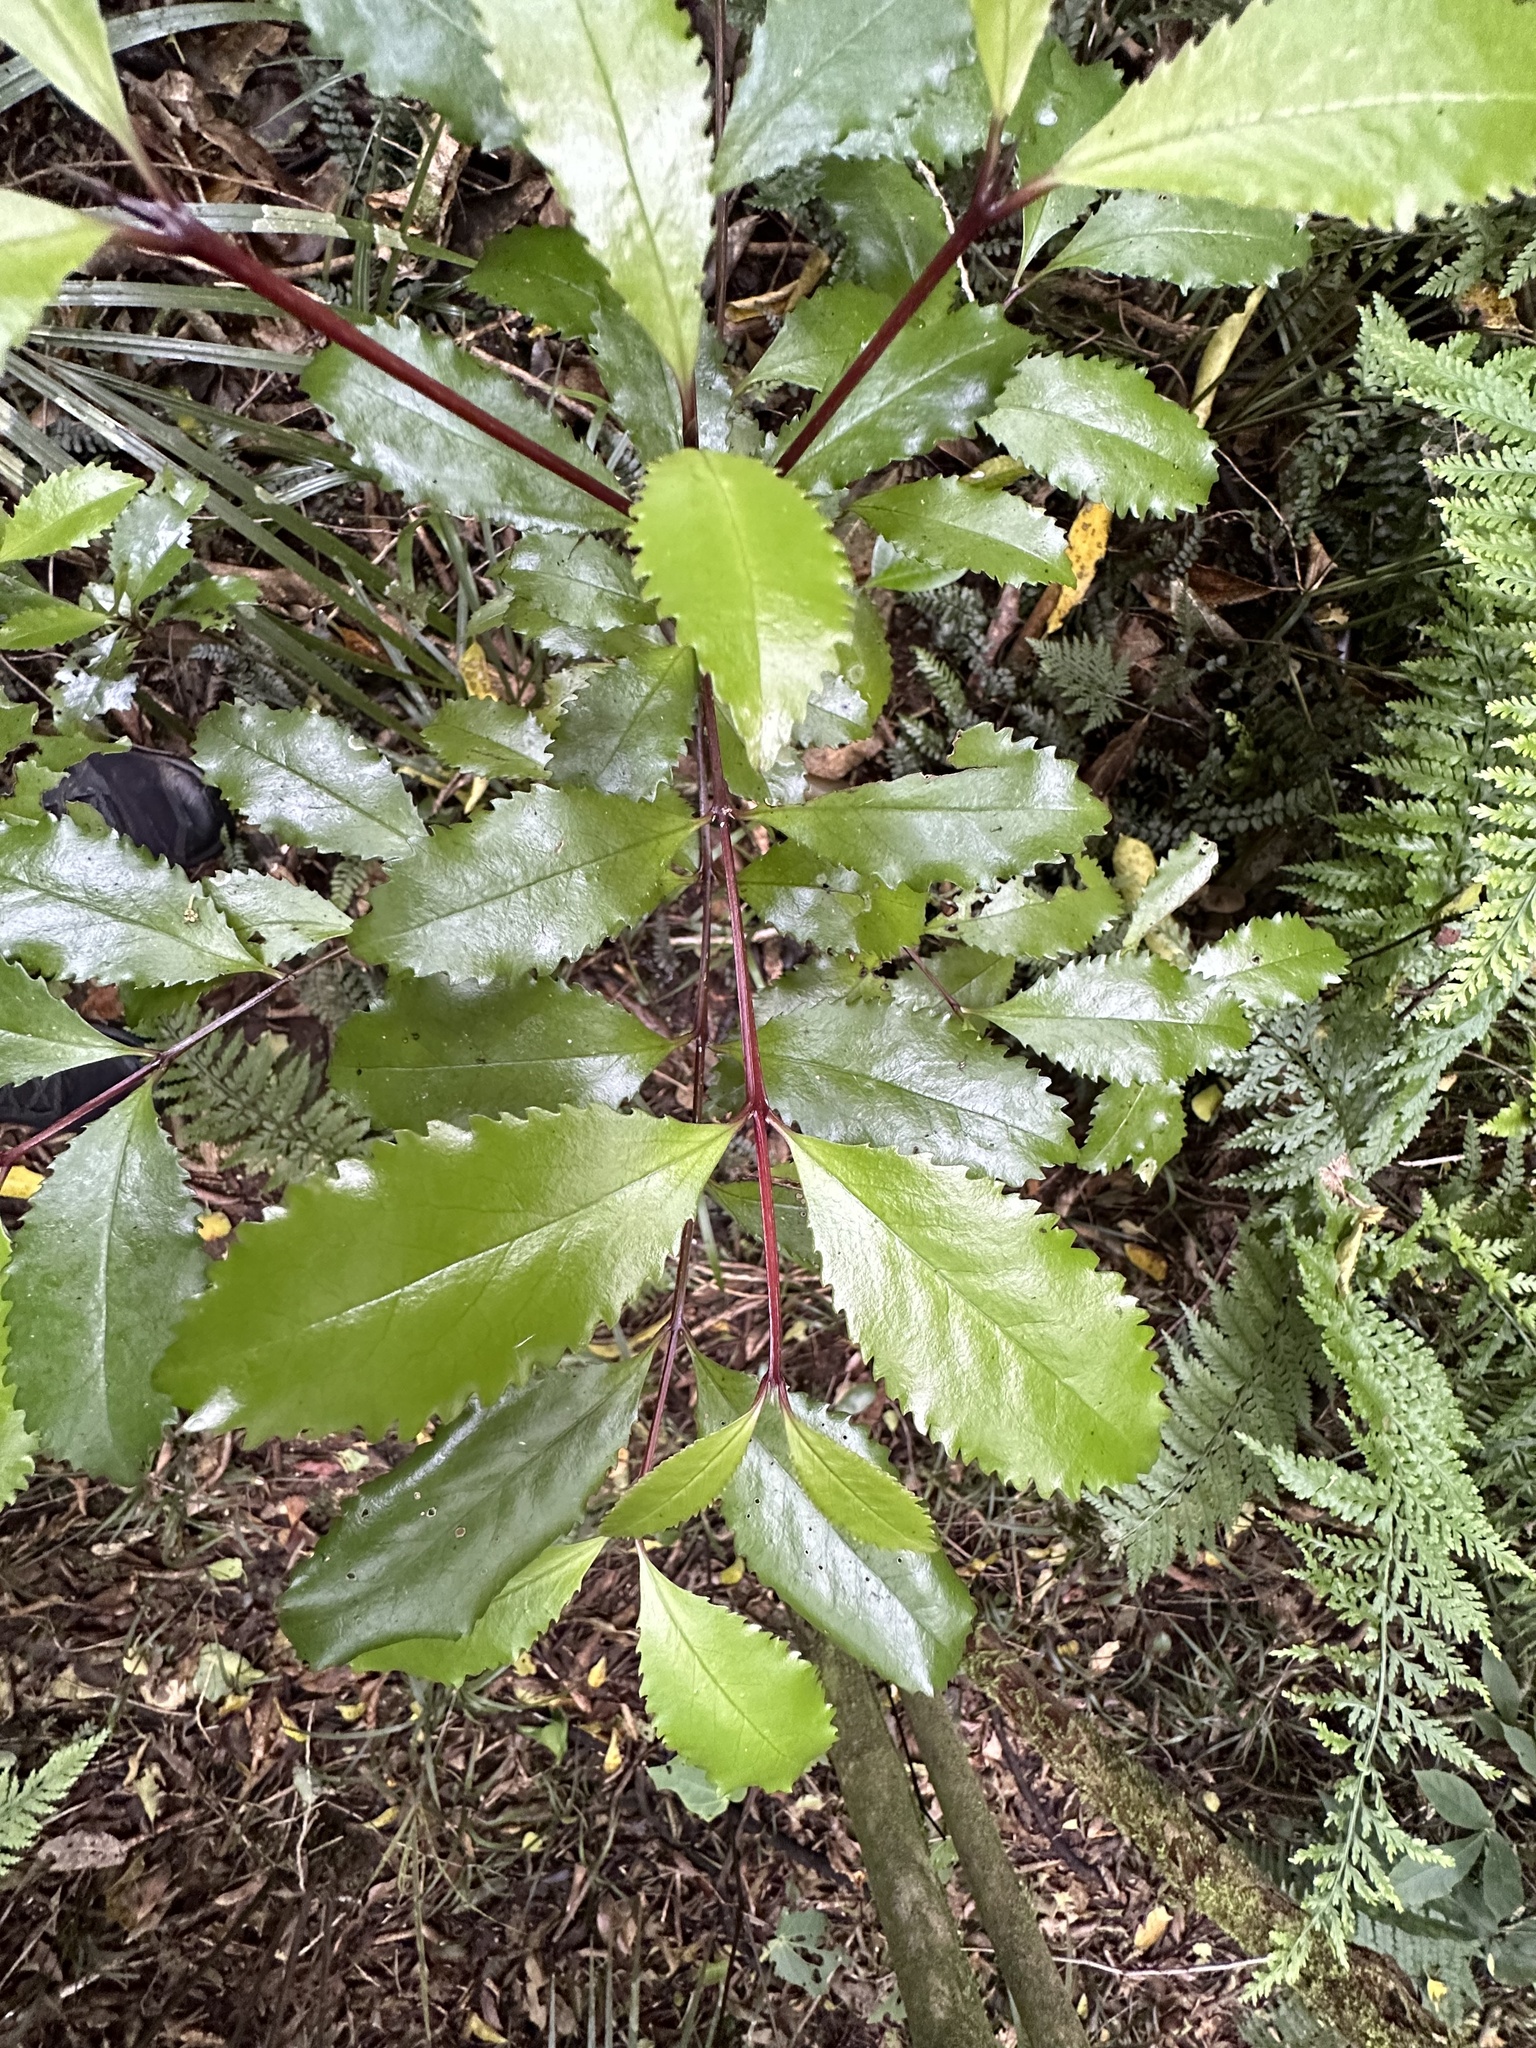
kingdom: Plantae
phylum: Tracheophyta
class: Magnoliopsida
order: Laurales
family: Atherospermataceae
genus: Laurelia
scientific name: Laurelia novae-zelandiae
